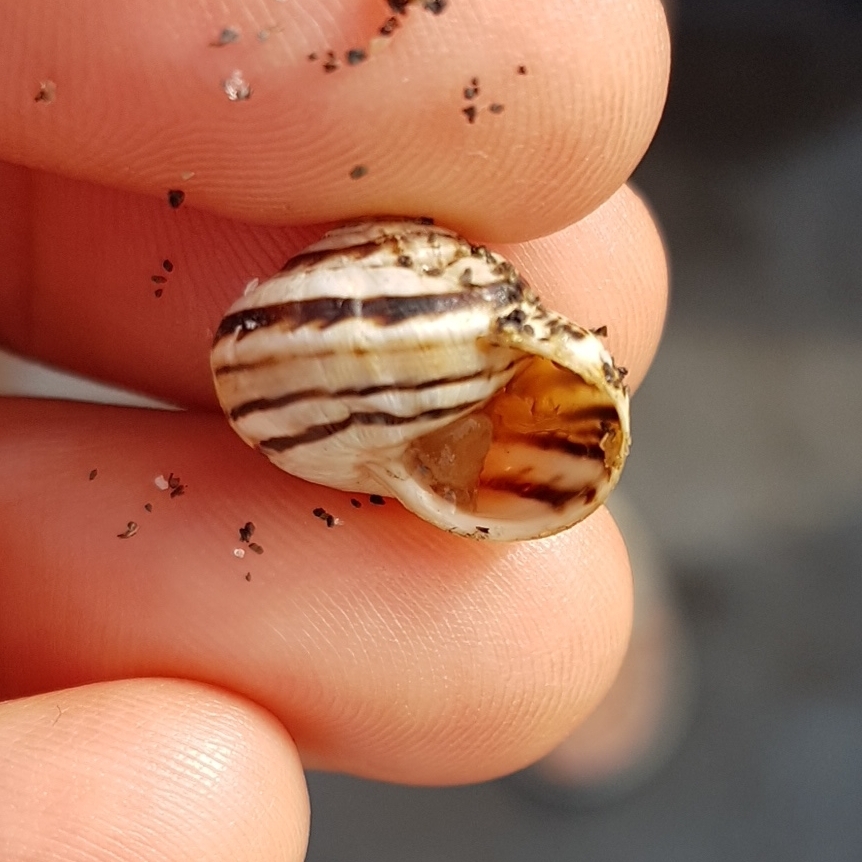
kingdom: Animalia
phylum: Mollusca
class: Gastropoda
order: Stylommatophora
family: Helicidae
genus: Theba
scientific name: Theba pisana
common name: White snail
